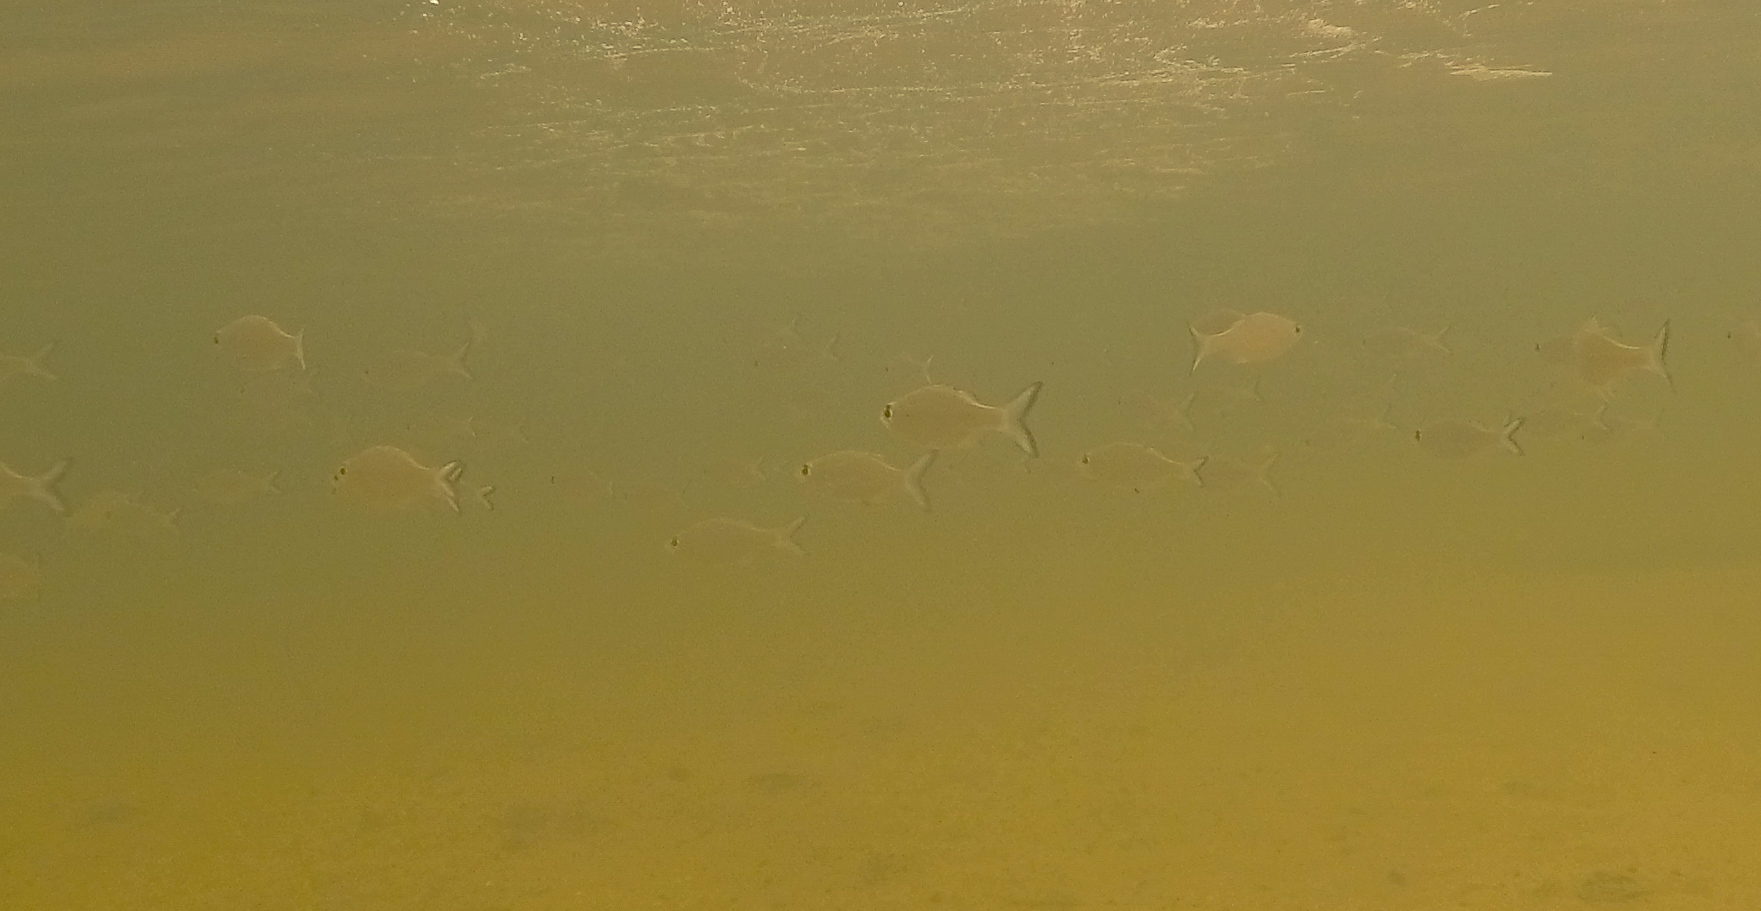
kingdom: Animalia
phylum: Chordata
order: Perciformes
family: Kuhliidae
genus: Kuhlia
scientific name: Kuhlia xenura
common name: Hawaiian flagtail
